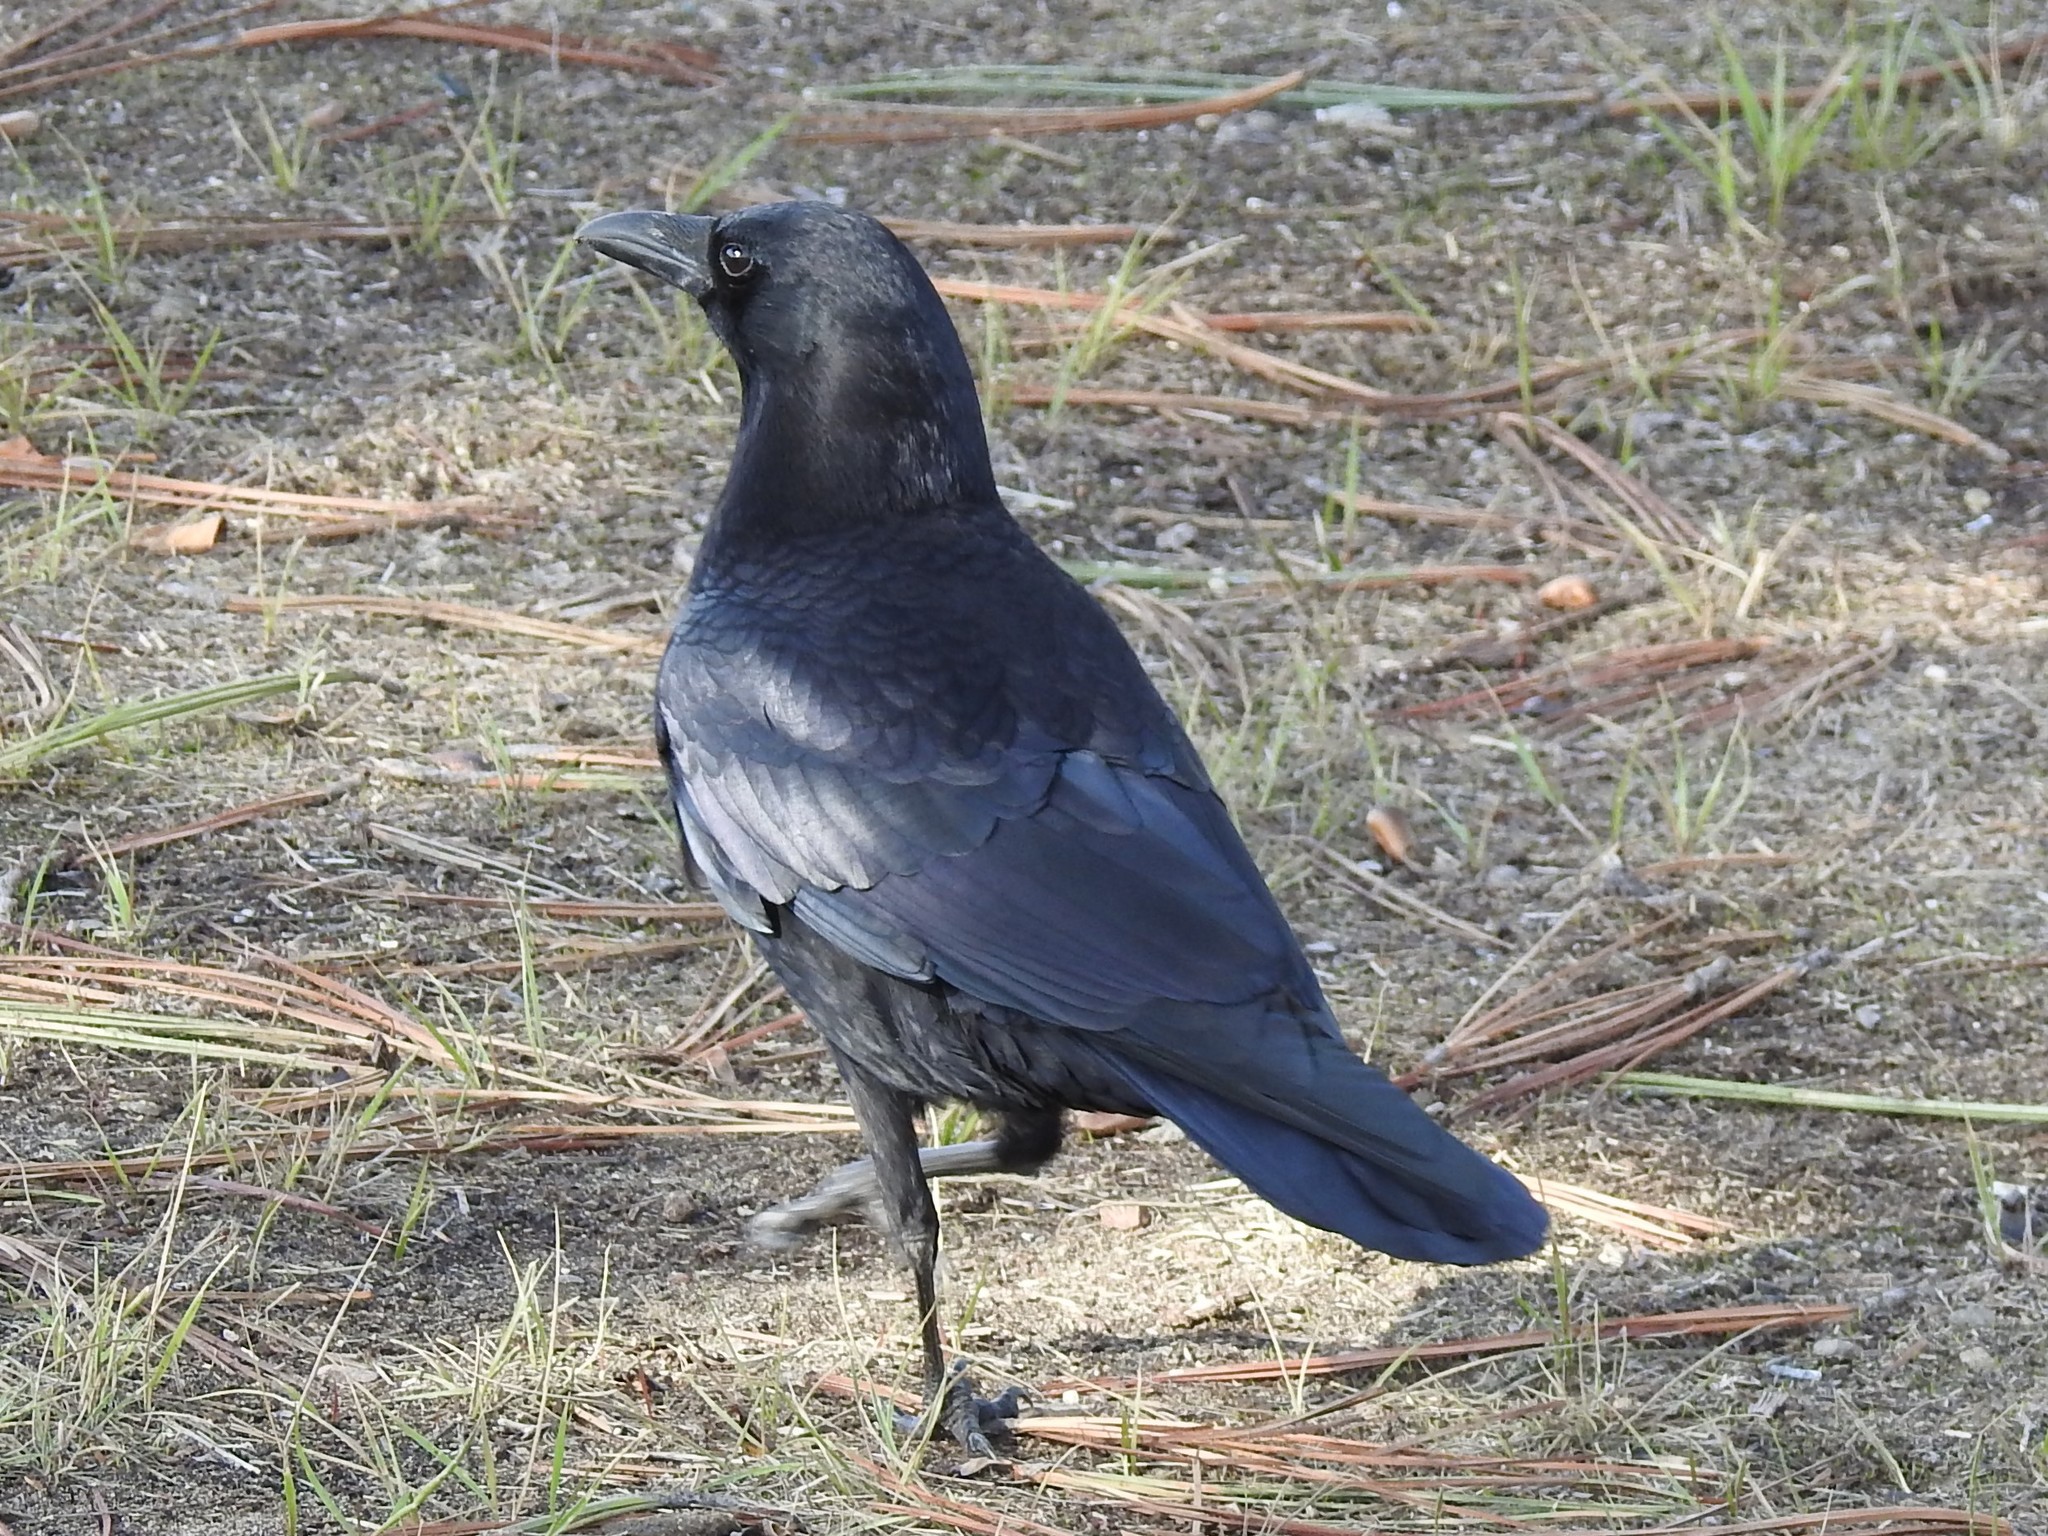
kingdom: Animalia
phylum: Chordata
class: Aves
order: Passeriformes
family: Corvidae
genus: Corvus
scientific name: Corvus brachyrhynchos
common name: American crow
